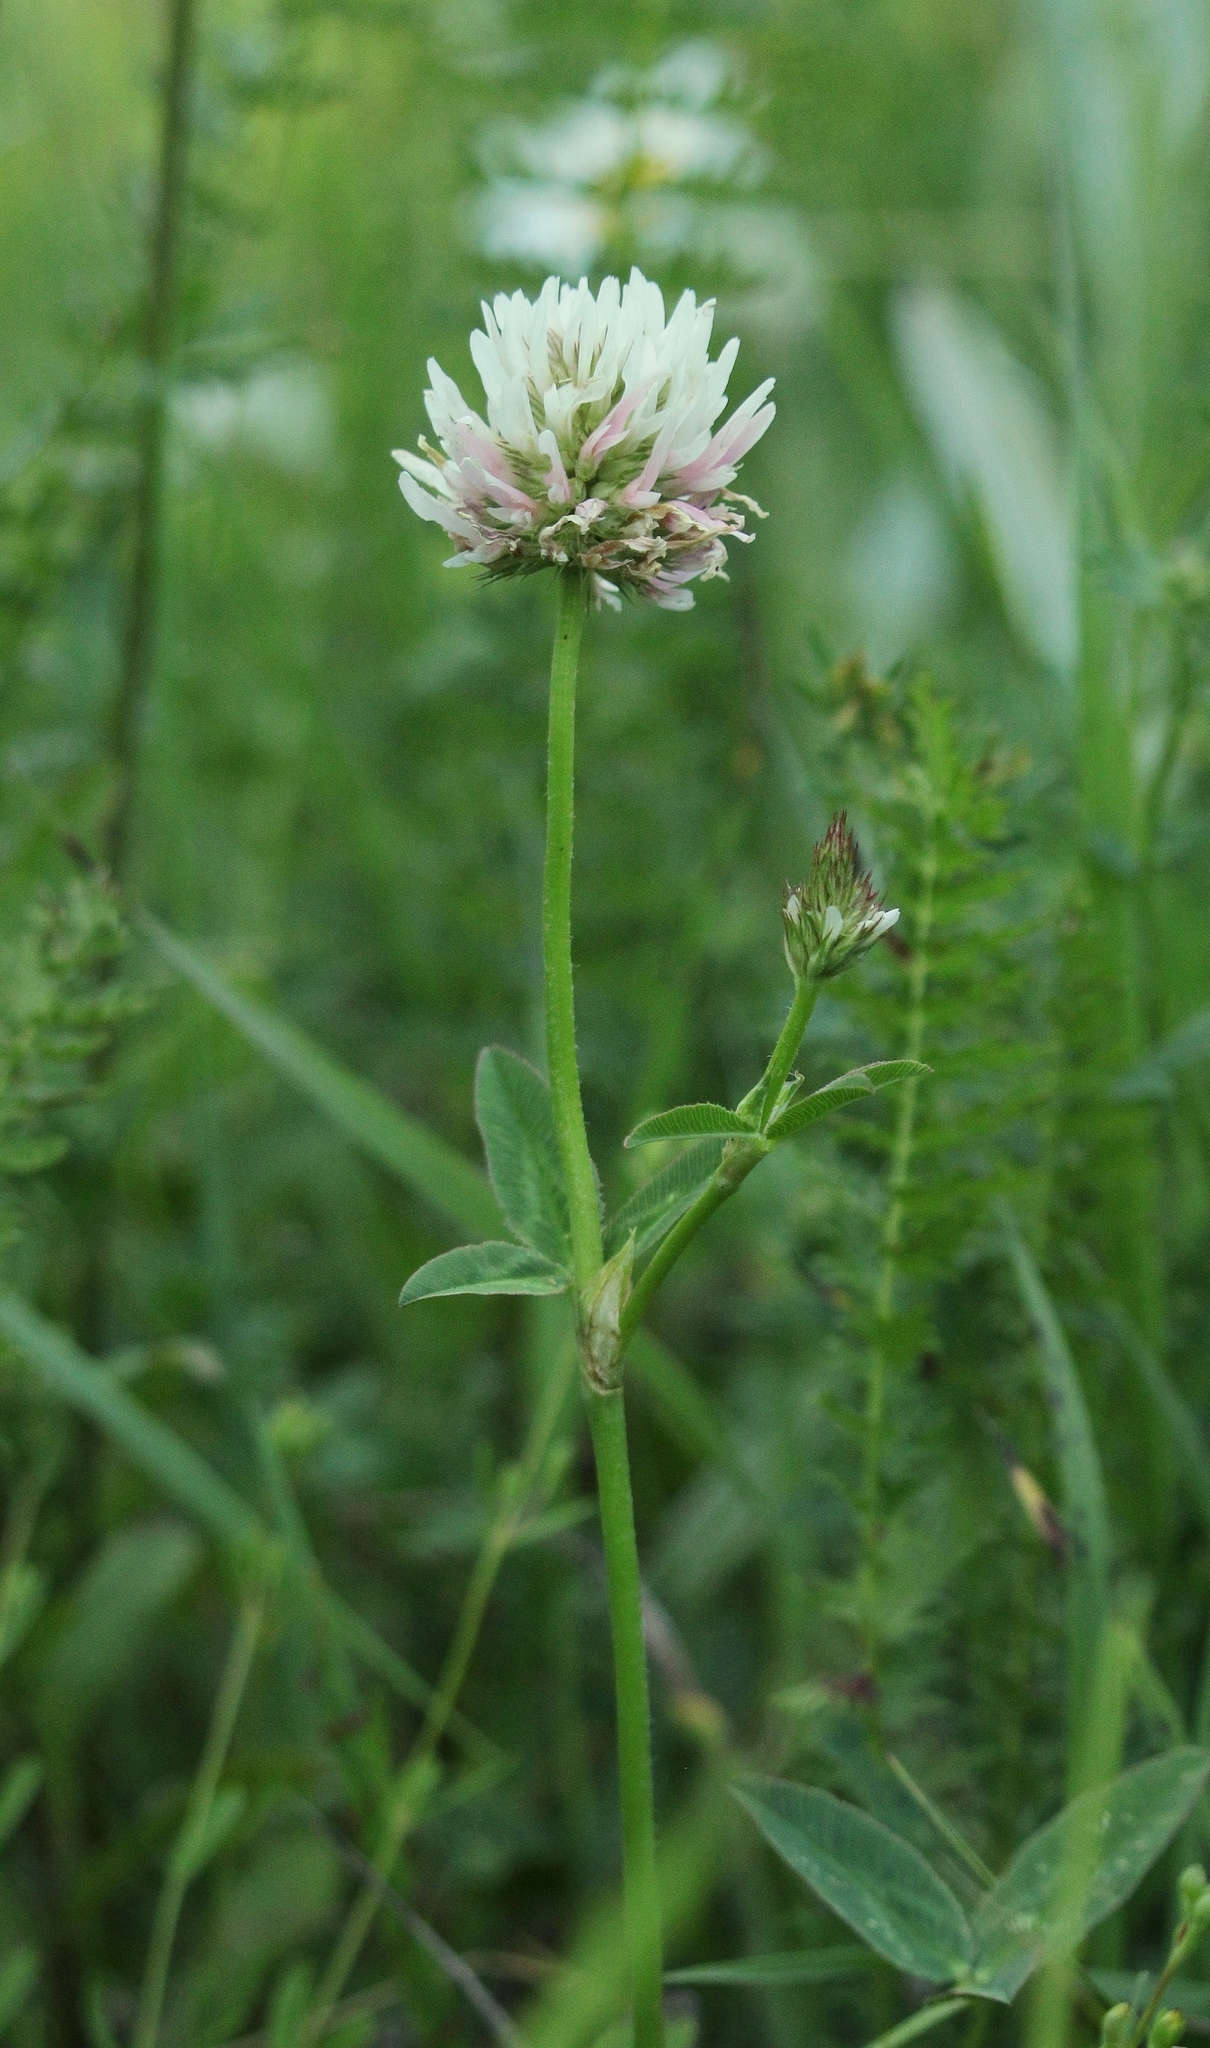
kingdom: Plantae
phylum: Tracheophyta
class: Magnoliopsida
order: Fabales
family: Fabaceae
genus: Trifolium
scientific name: Trifolium ambiguum
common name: Kura clover
